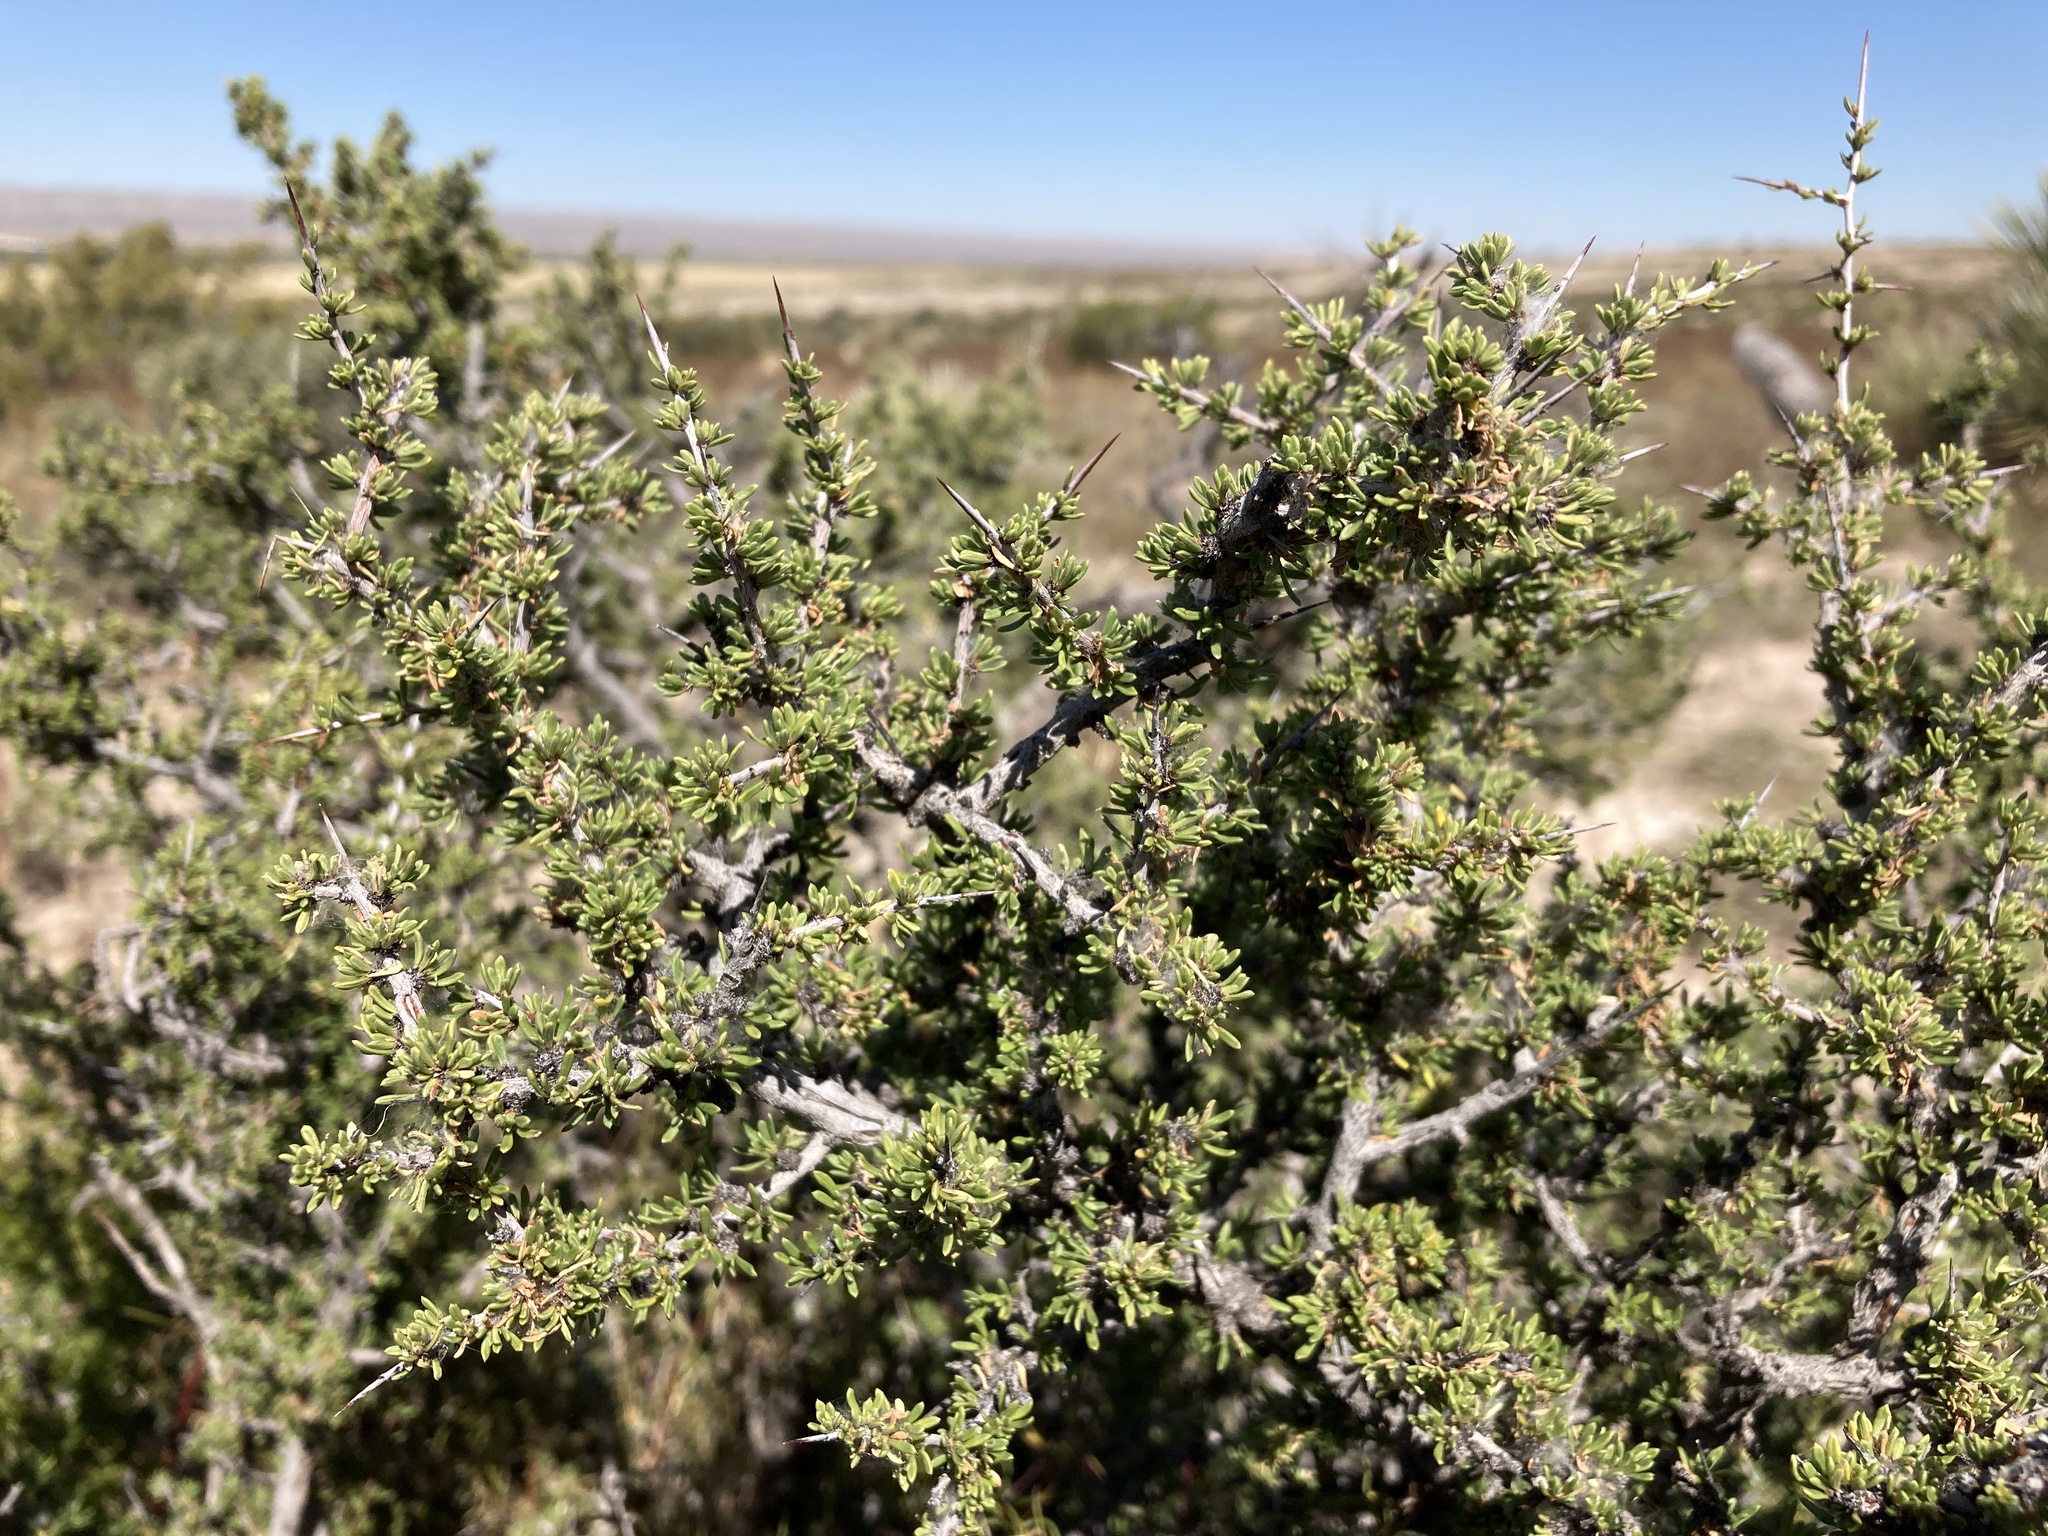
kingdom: Plantae
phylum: Tracheophyta
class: Magnoliopsida
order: Rosales
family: Rhamnaceae
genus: Condalia
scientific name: Condalia ericoides
